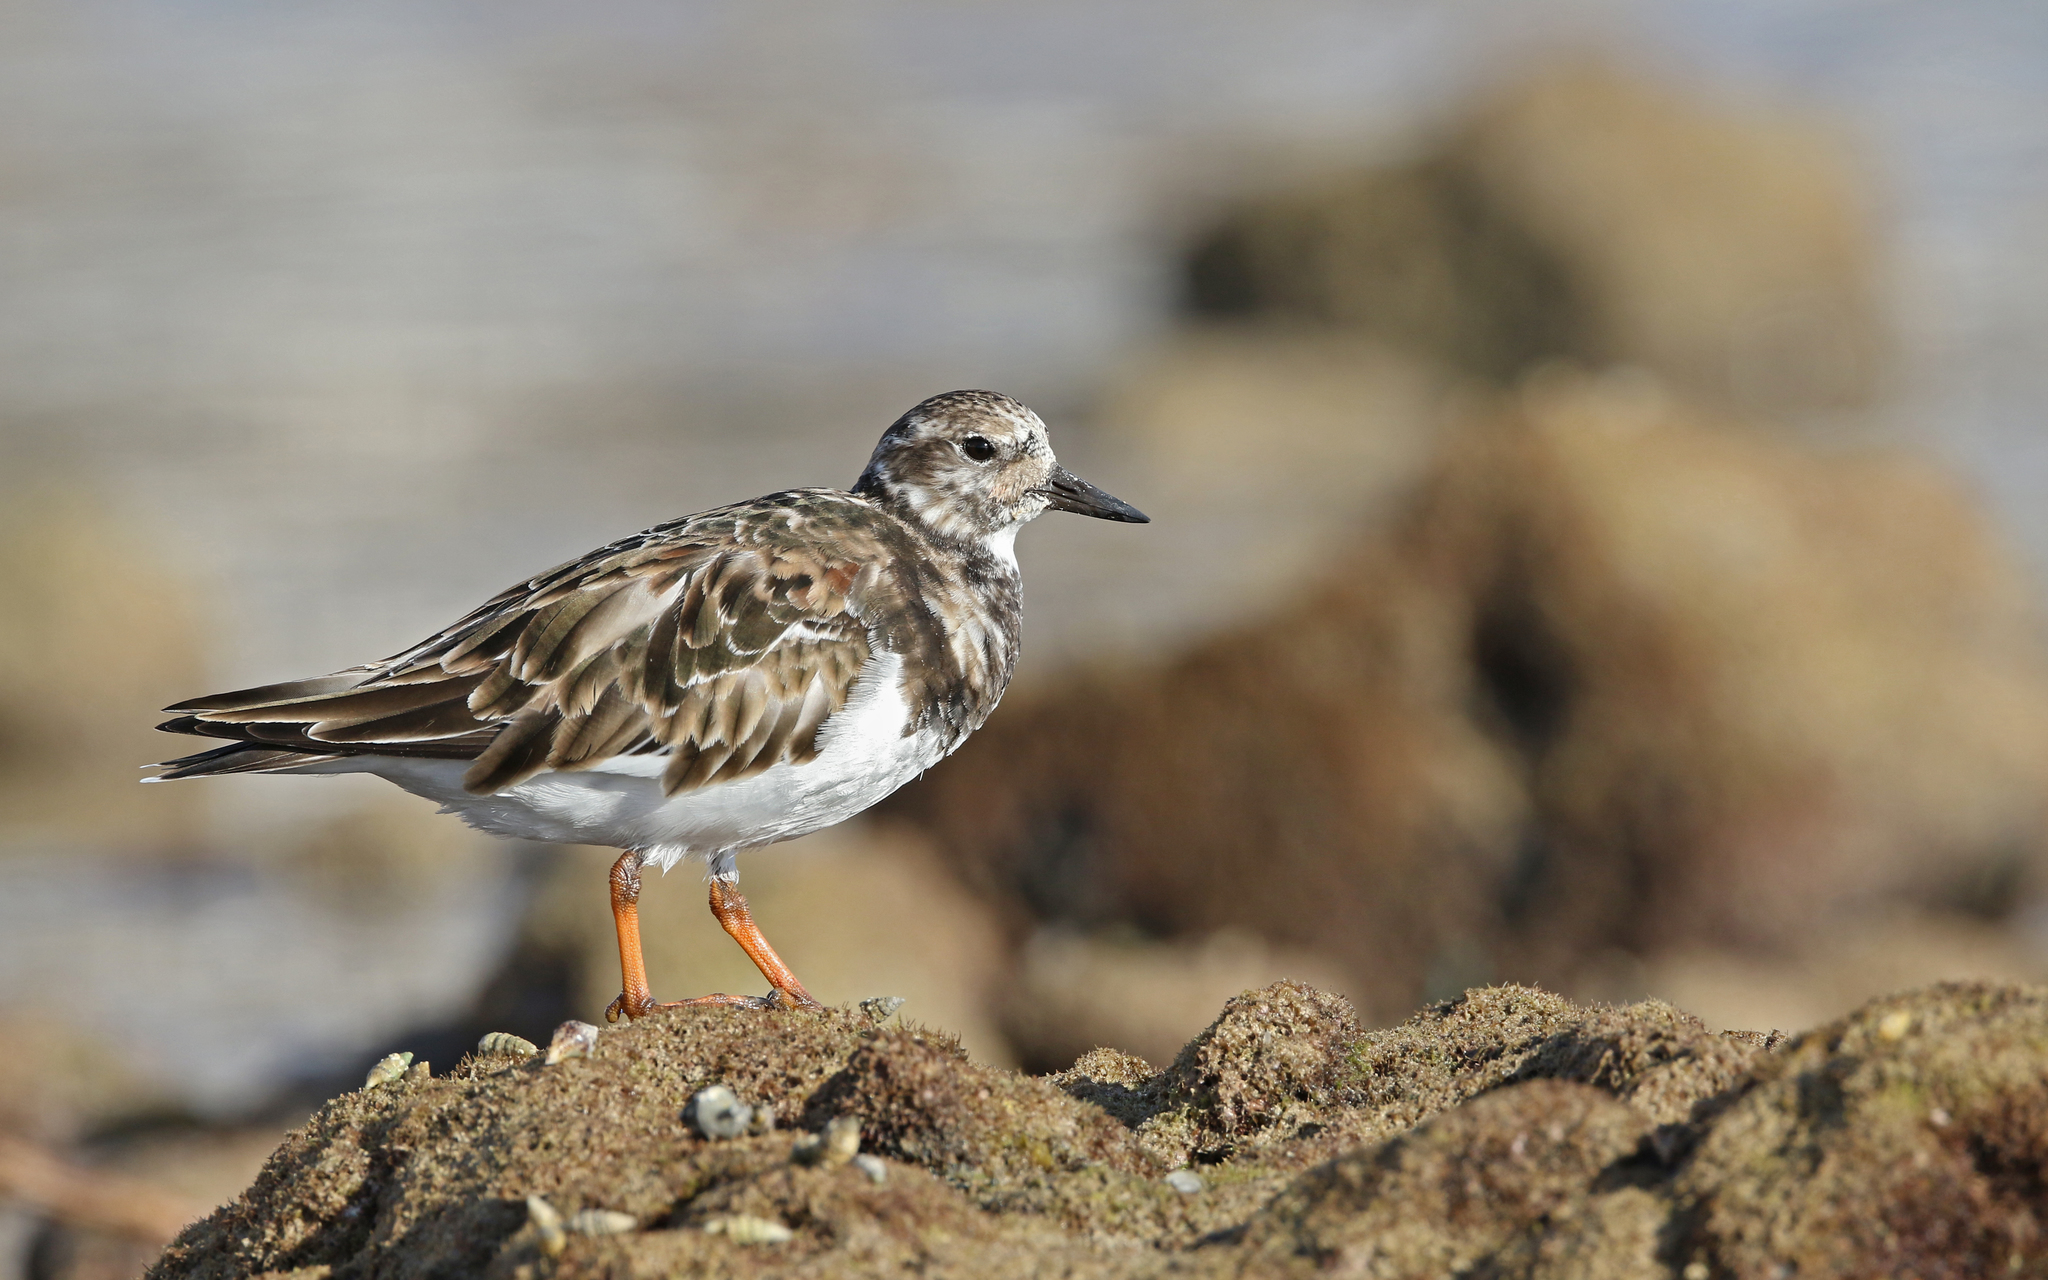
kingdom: Animalia
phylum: Chordata
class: Aves
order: Charadriiformes
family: Scolopacidae
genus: Arenaria
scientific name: Arenaria interpres
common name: Ruddy turnstone
